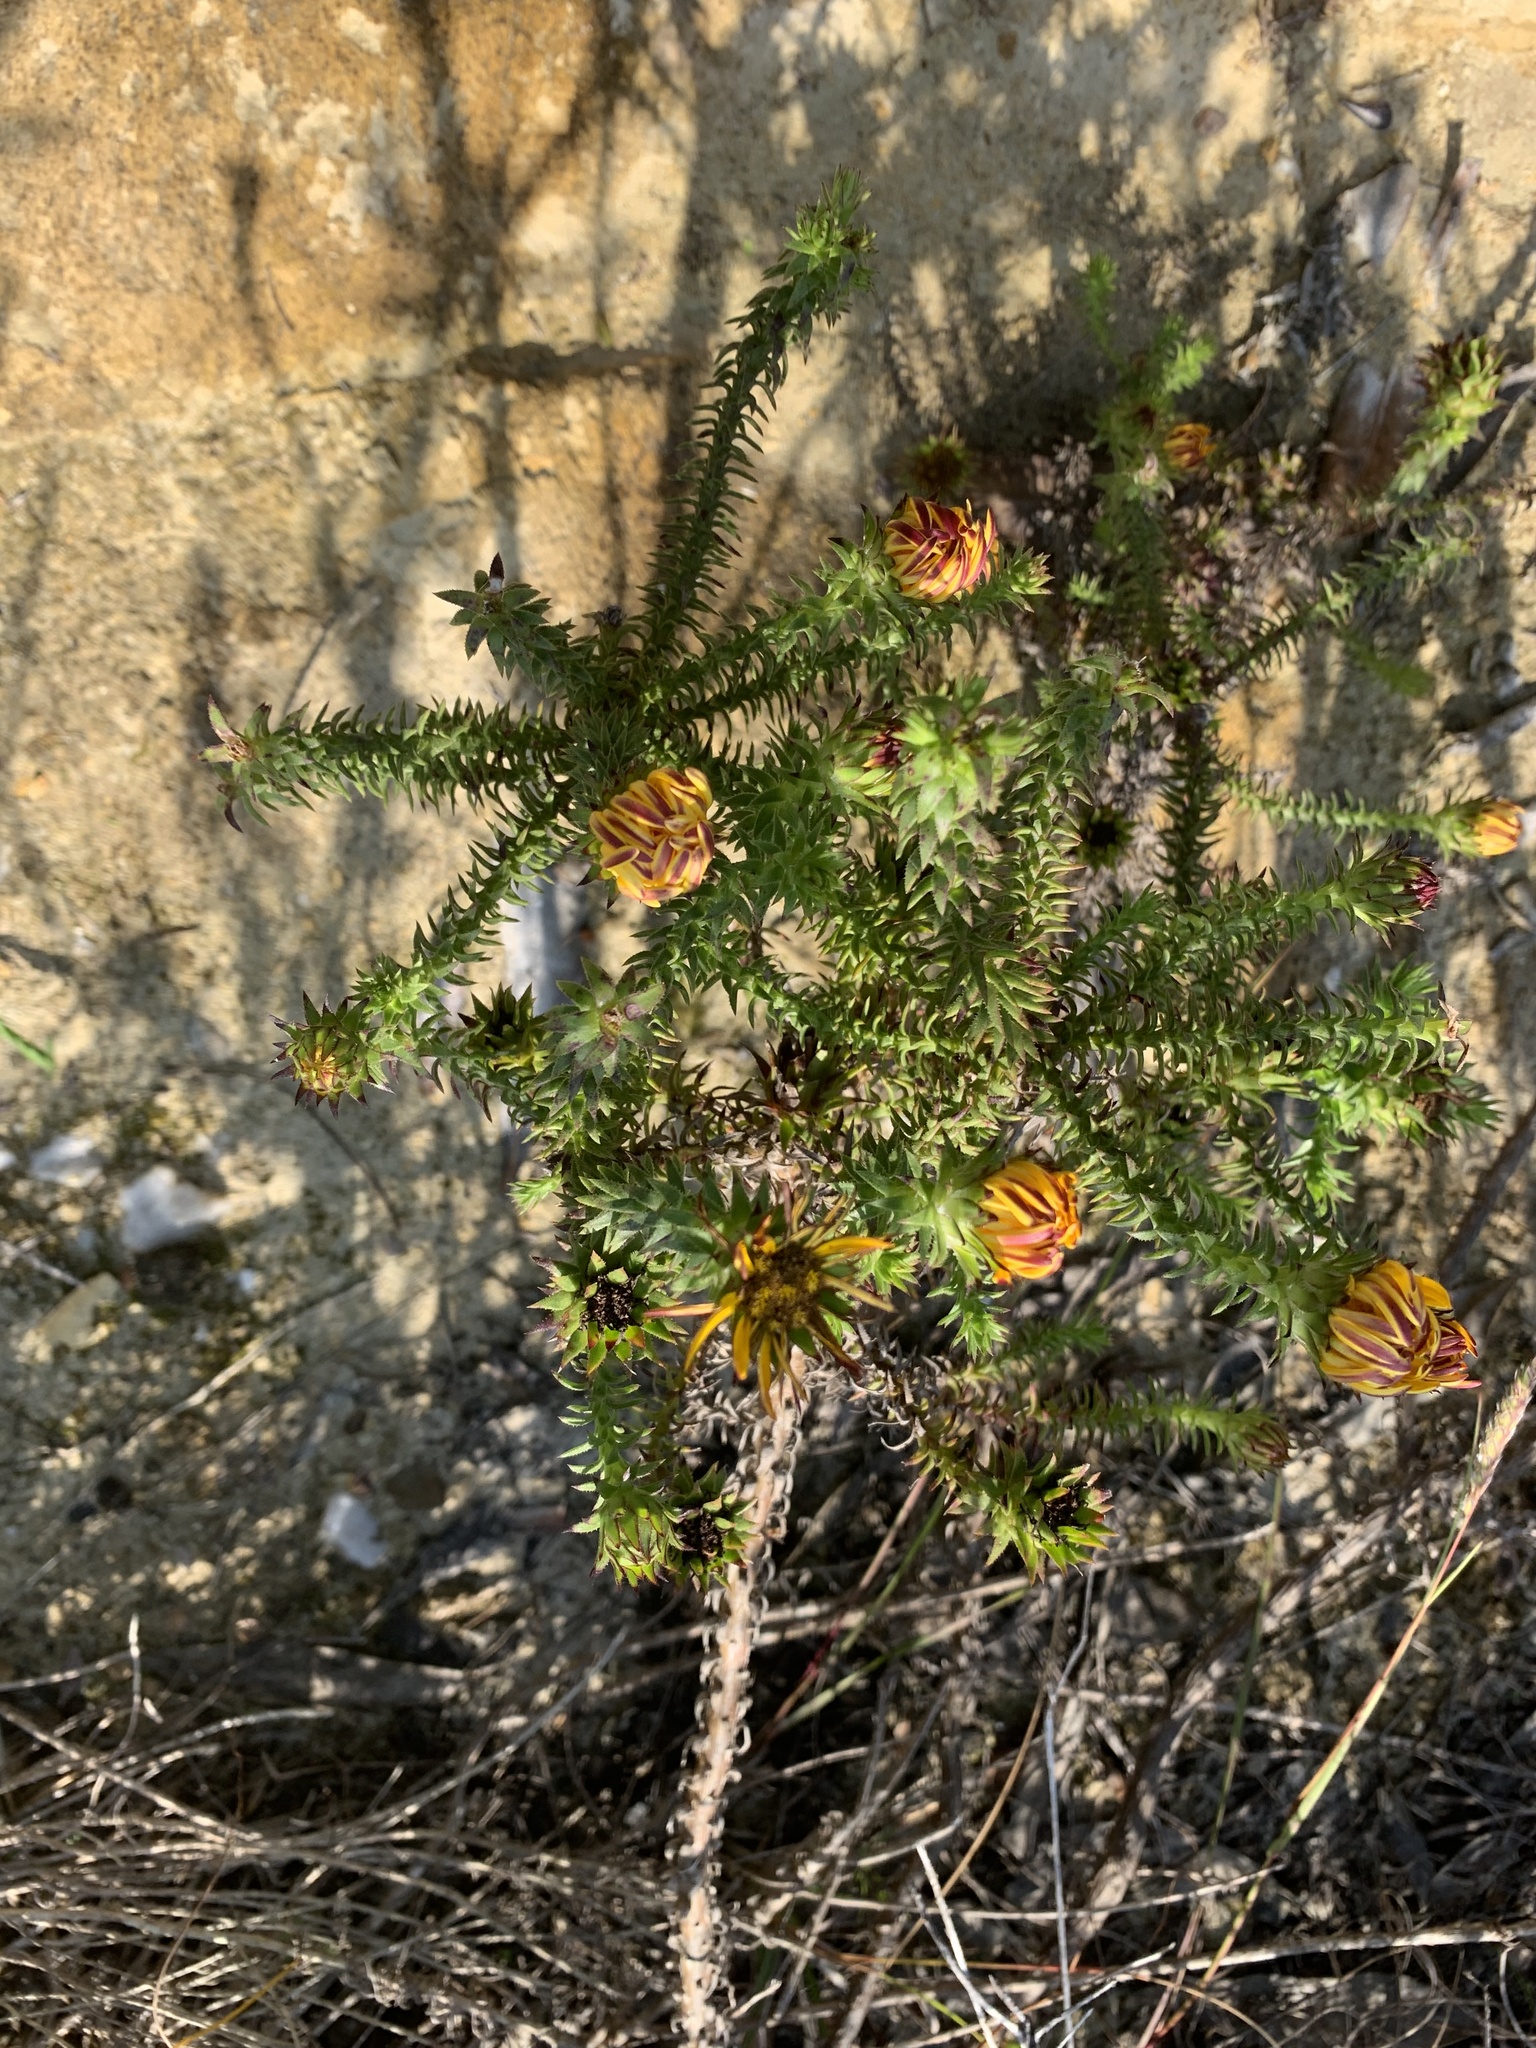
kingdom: Plantae
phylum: Tracheophyta
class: Magnoliopsida
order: Asterales
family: Asteraceae
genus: Oedera
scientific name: Oedera capensis
